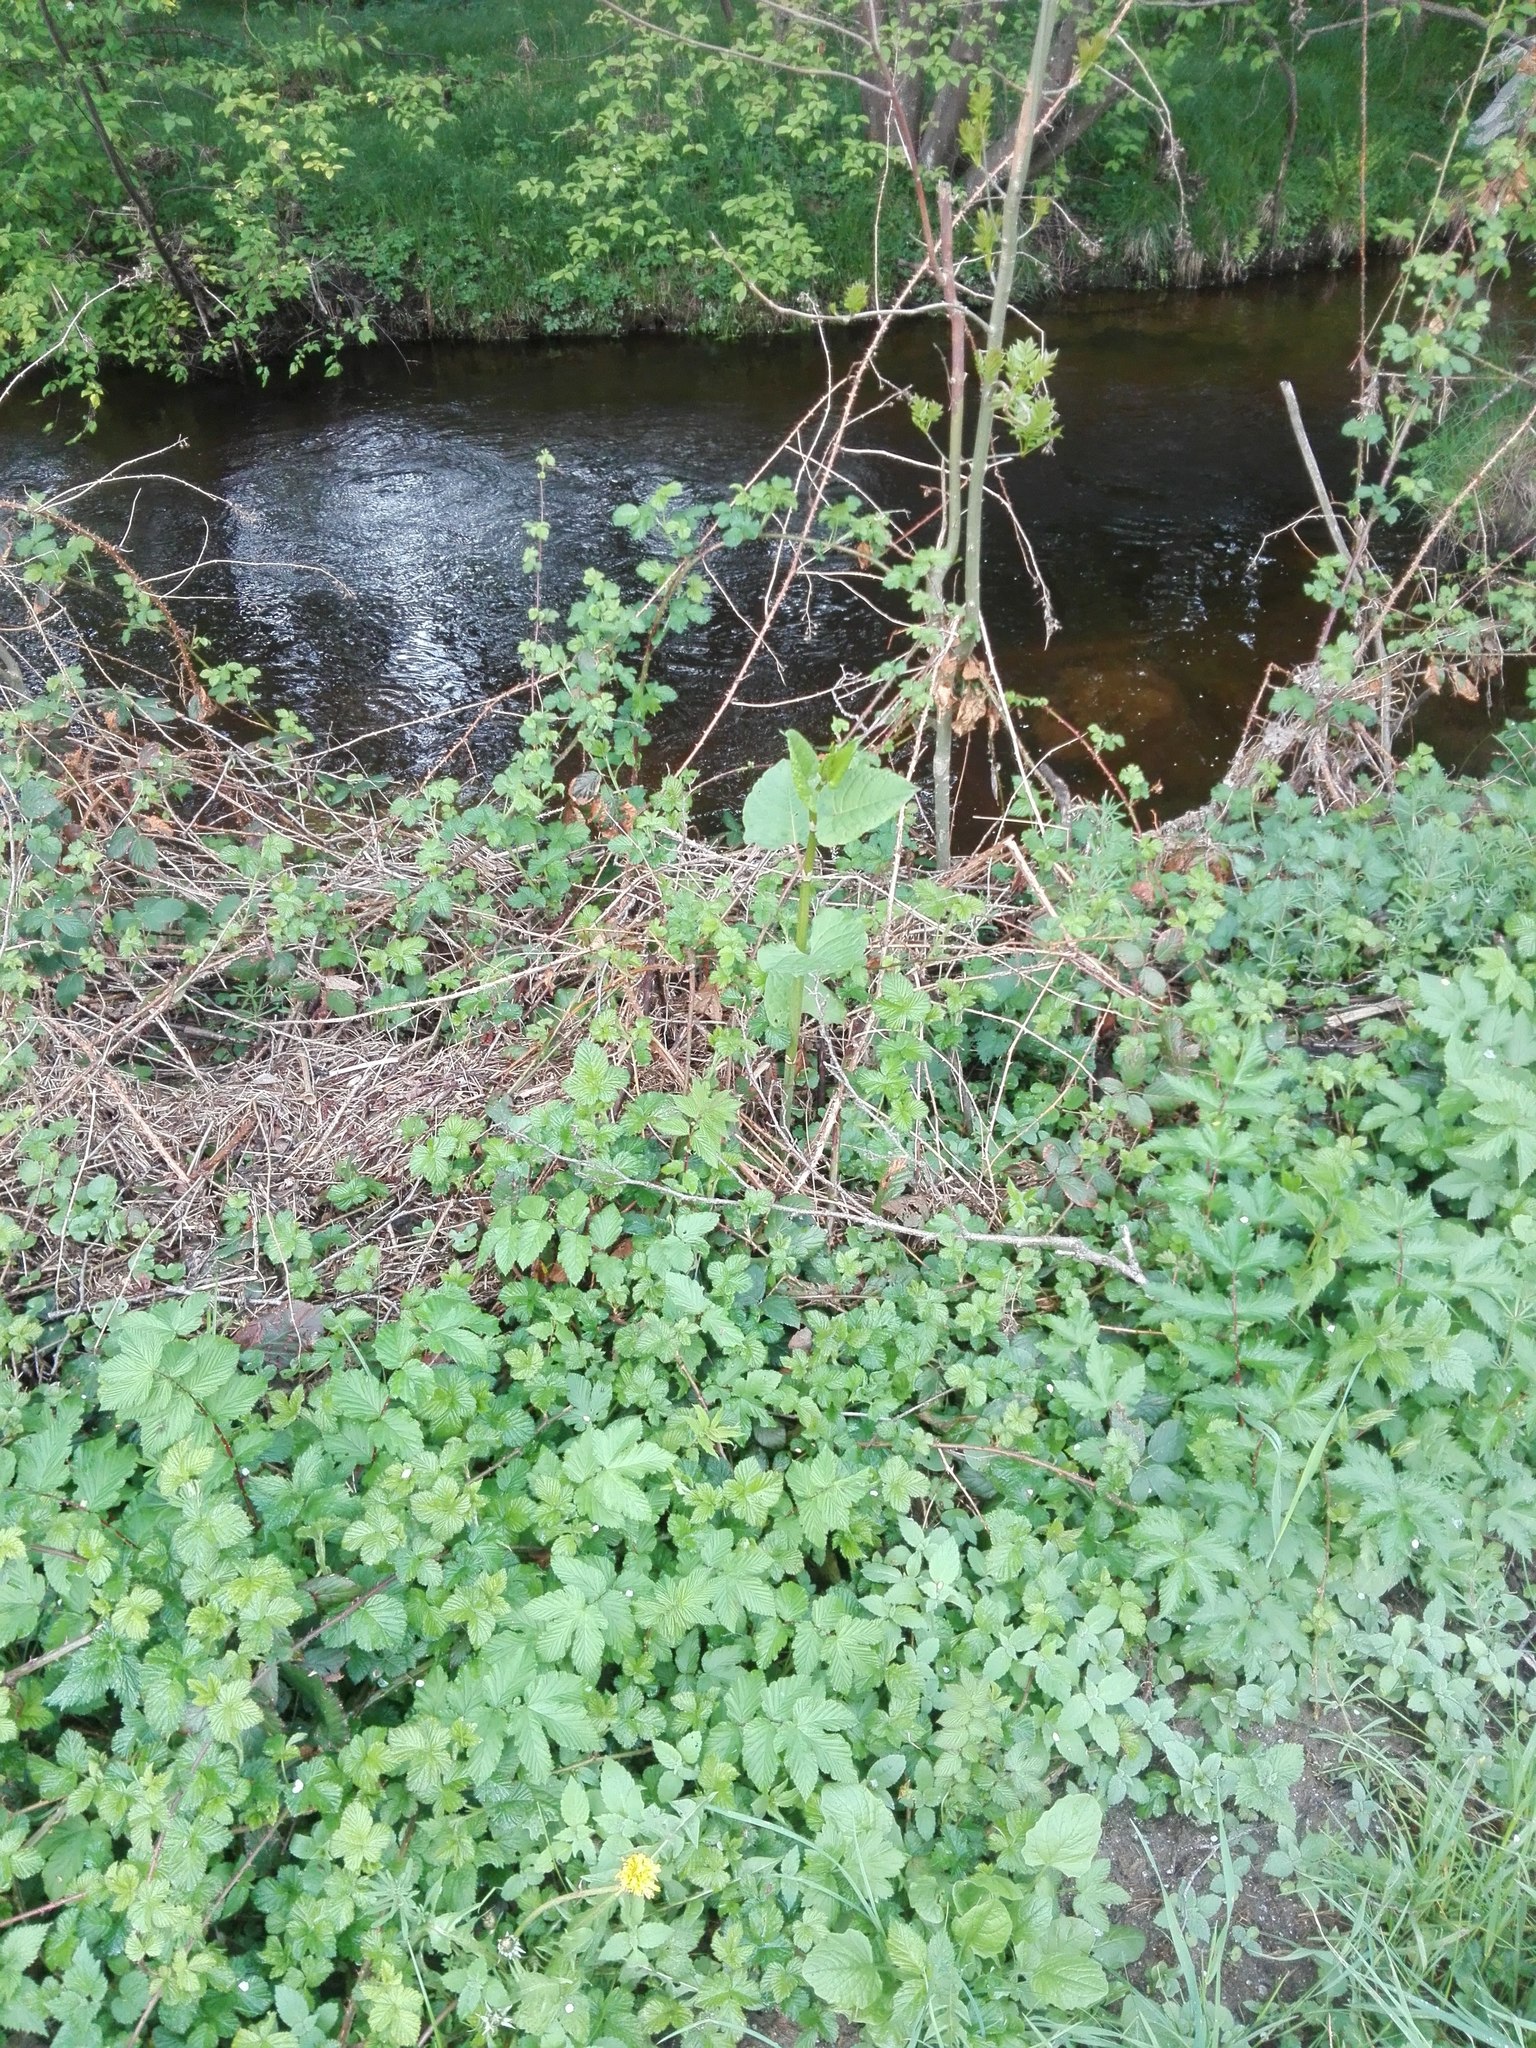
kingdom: Plantae
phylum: Tracheophyta
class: Magnoliopsida
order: Caryophyllales
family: Polygonaceae
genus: Reynoutria
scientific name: Reynoutria bohemica
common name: Bohemian knotweed
